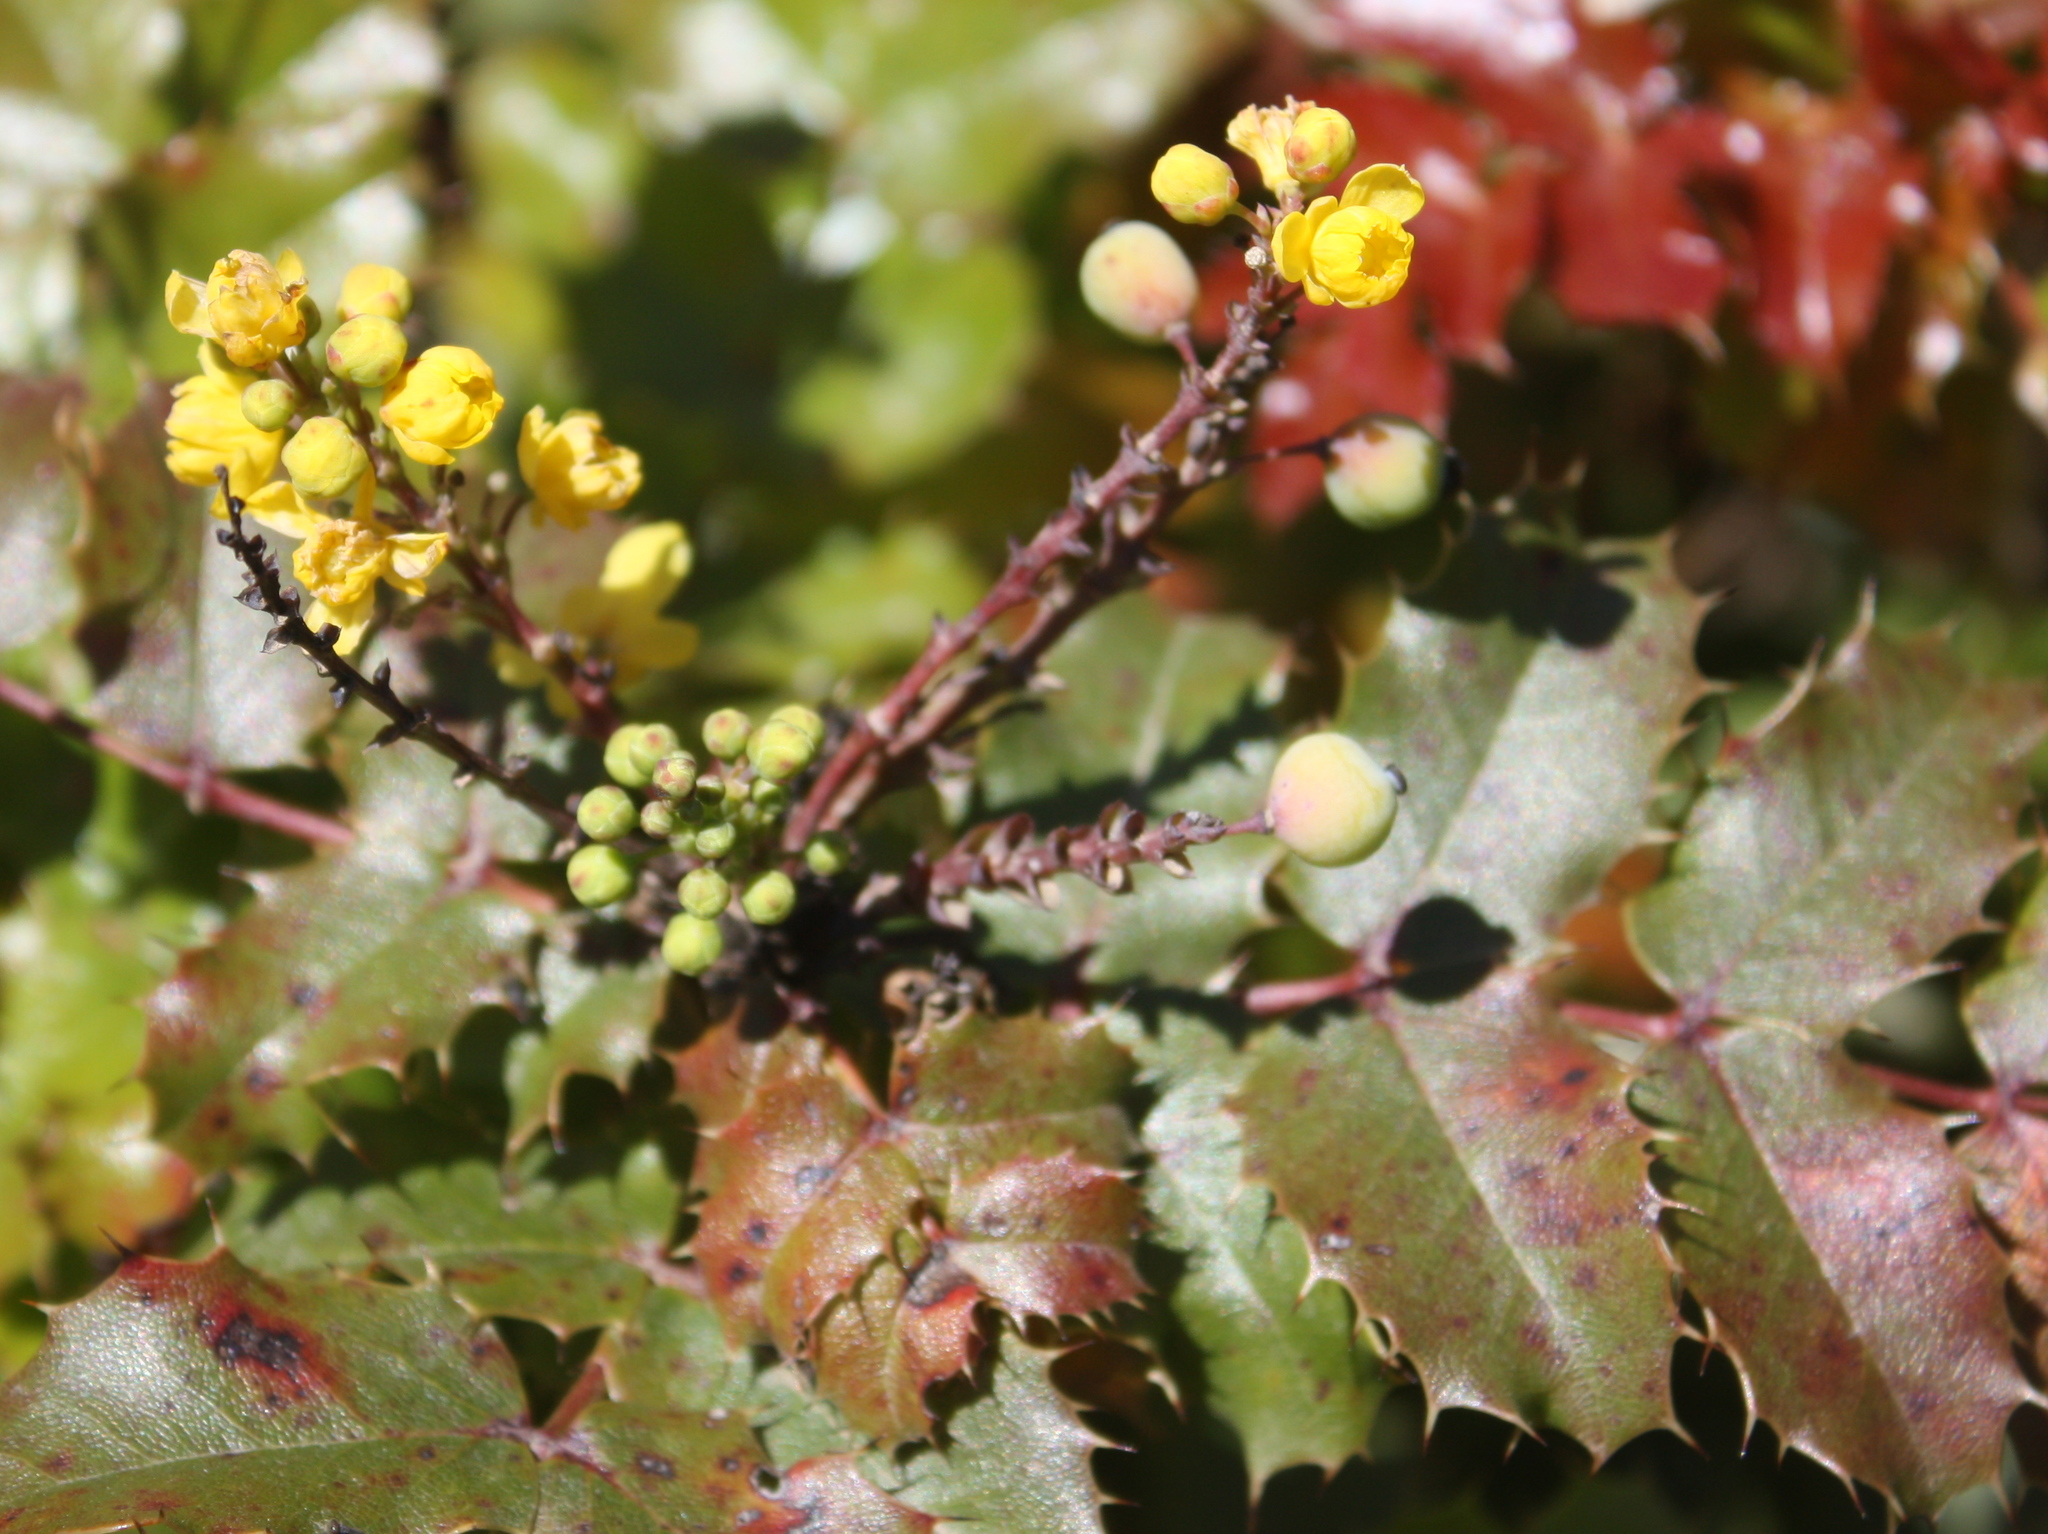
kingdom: Plantae
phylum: Tracheophyta
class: Magnoliopsida
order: Ranunculales
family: Berberidaceae
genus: Mahonia
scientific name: Mahonia
